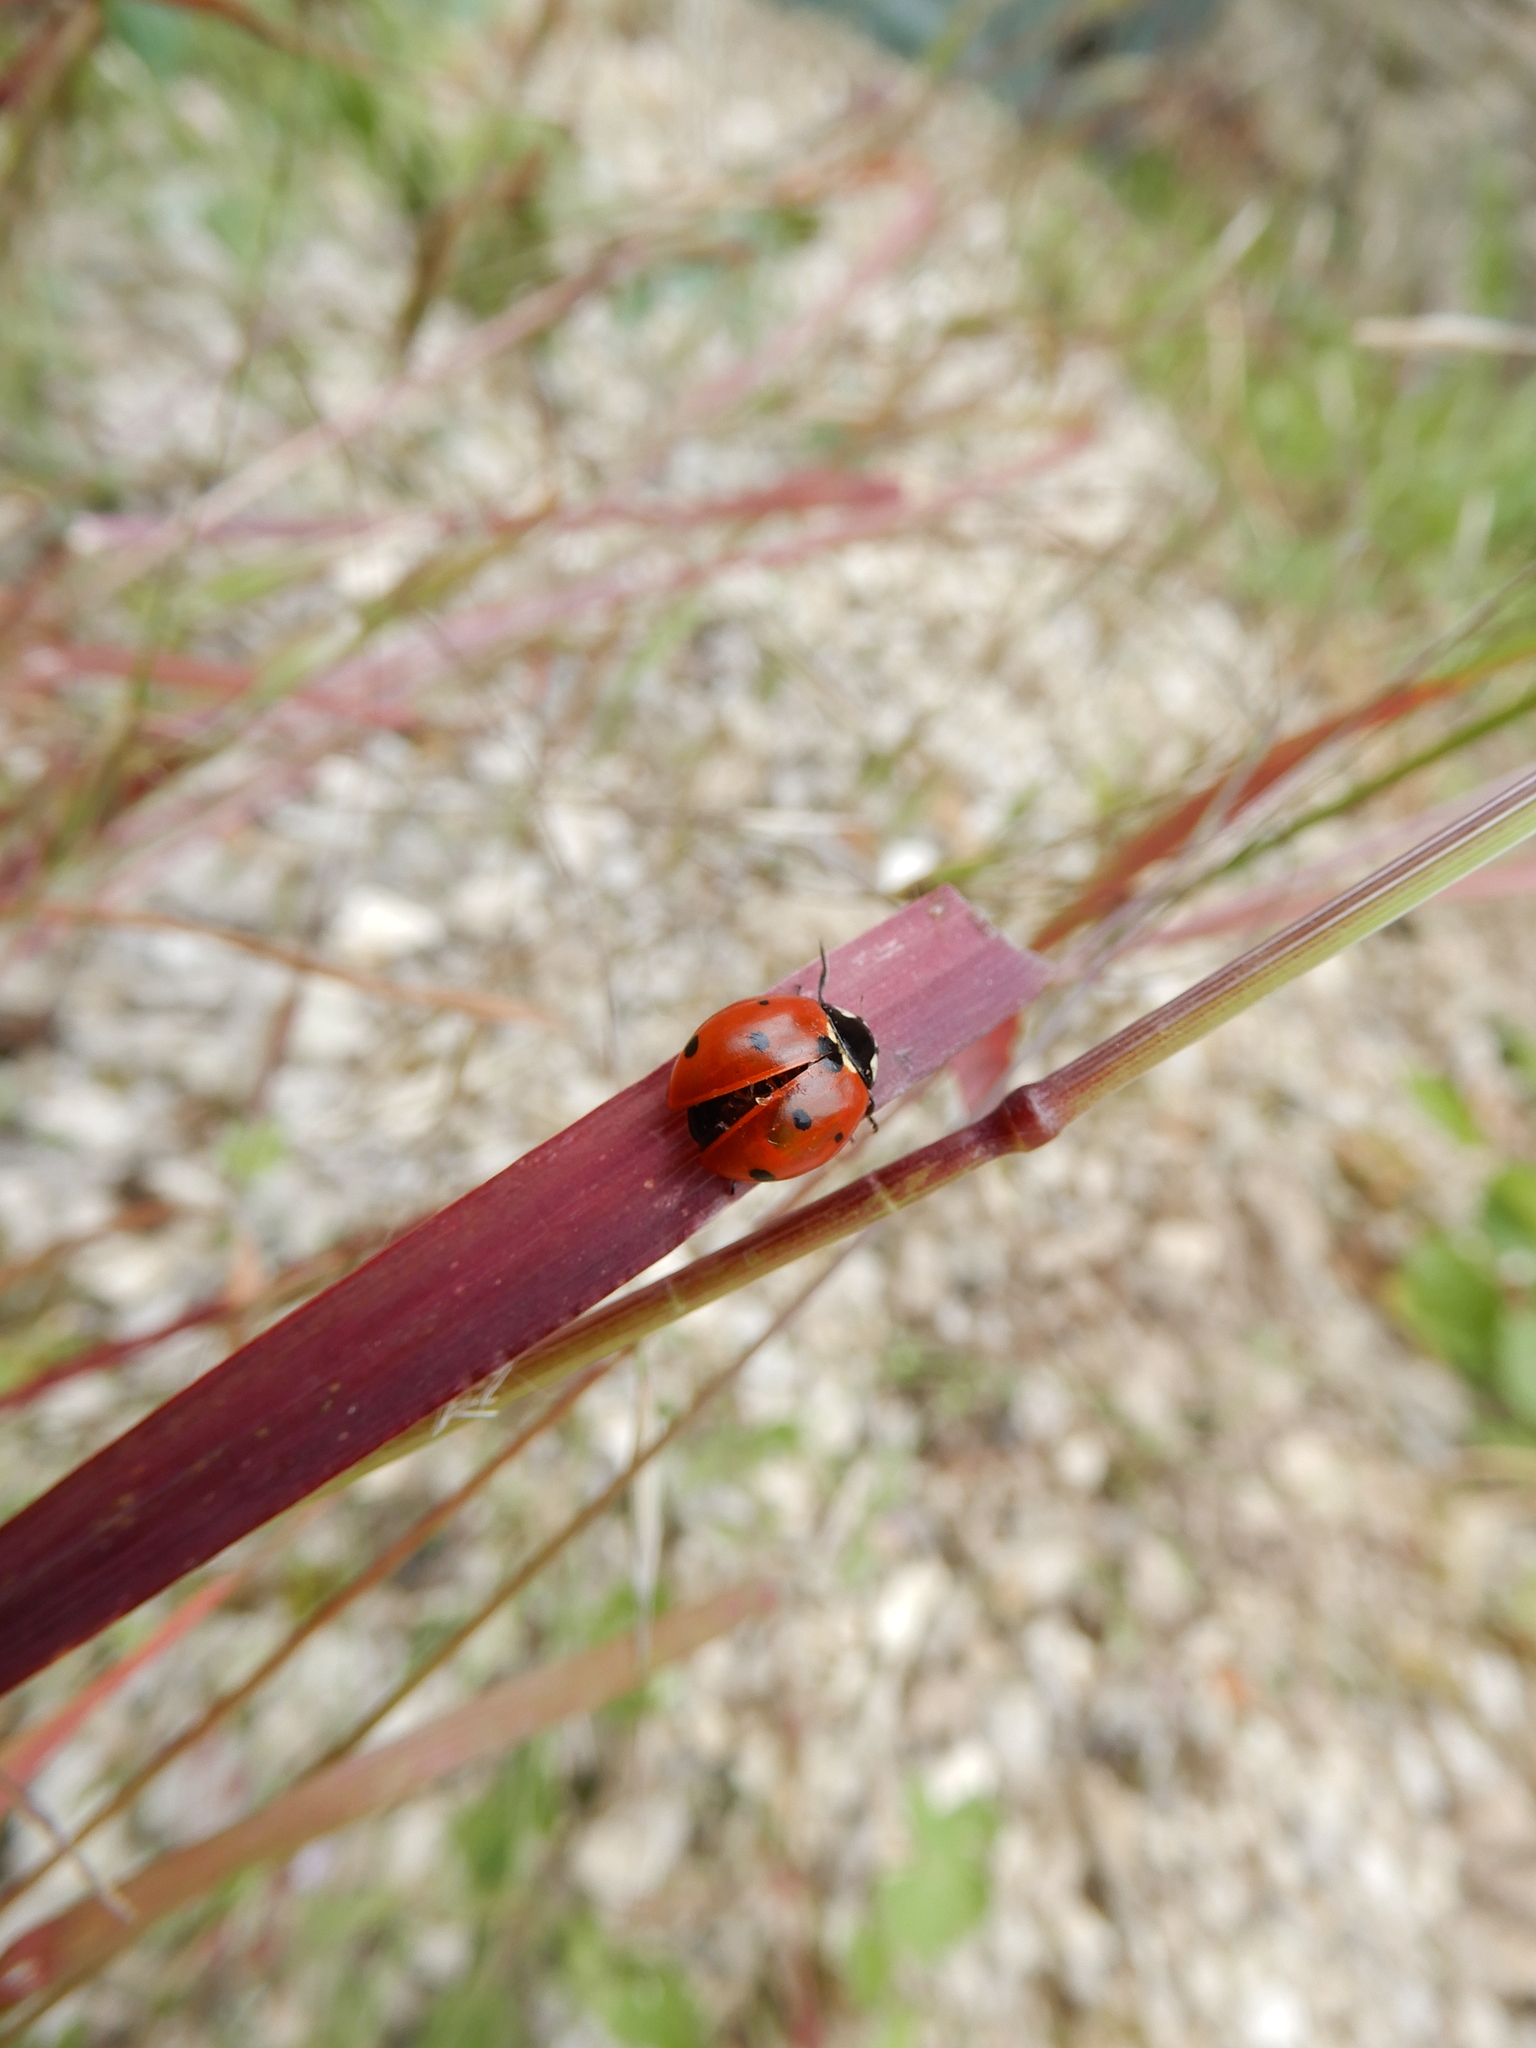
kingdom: Animalia
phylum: Arthropoda
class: Insecta
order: Coleoptera
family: Coccinellidae
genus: Coccinella
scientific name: Coccinella septempunctata
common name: Sevenspotted lady beetle
